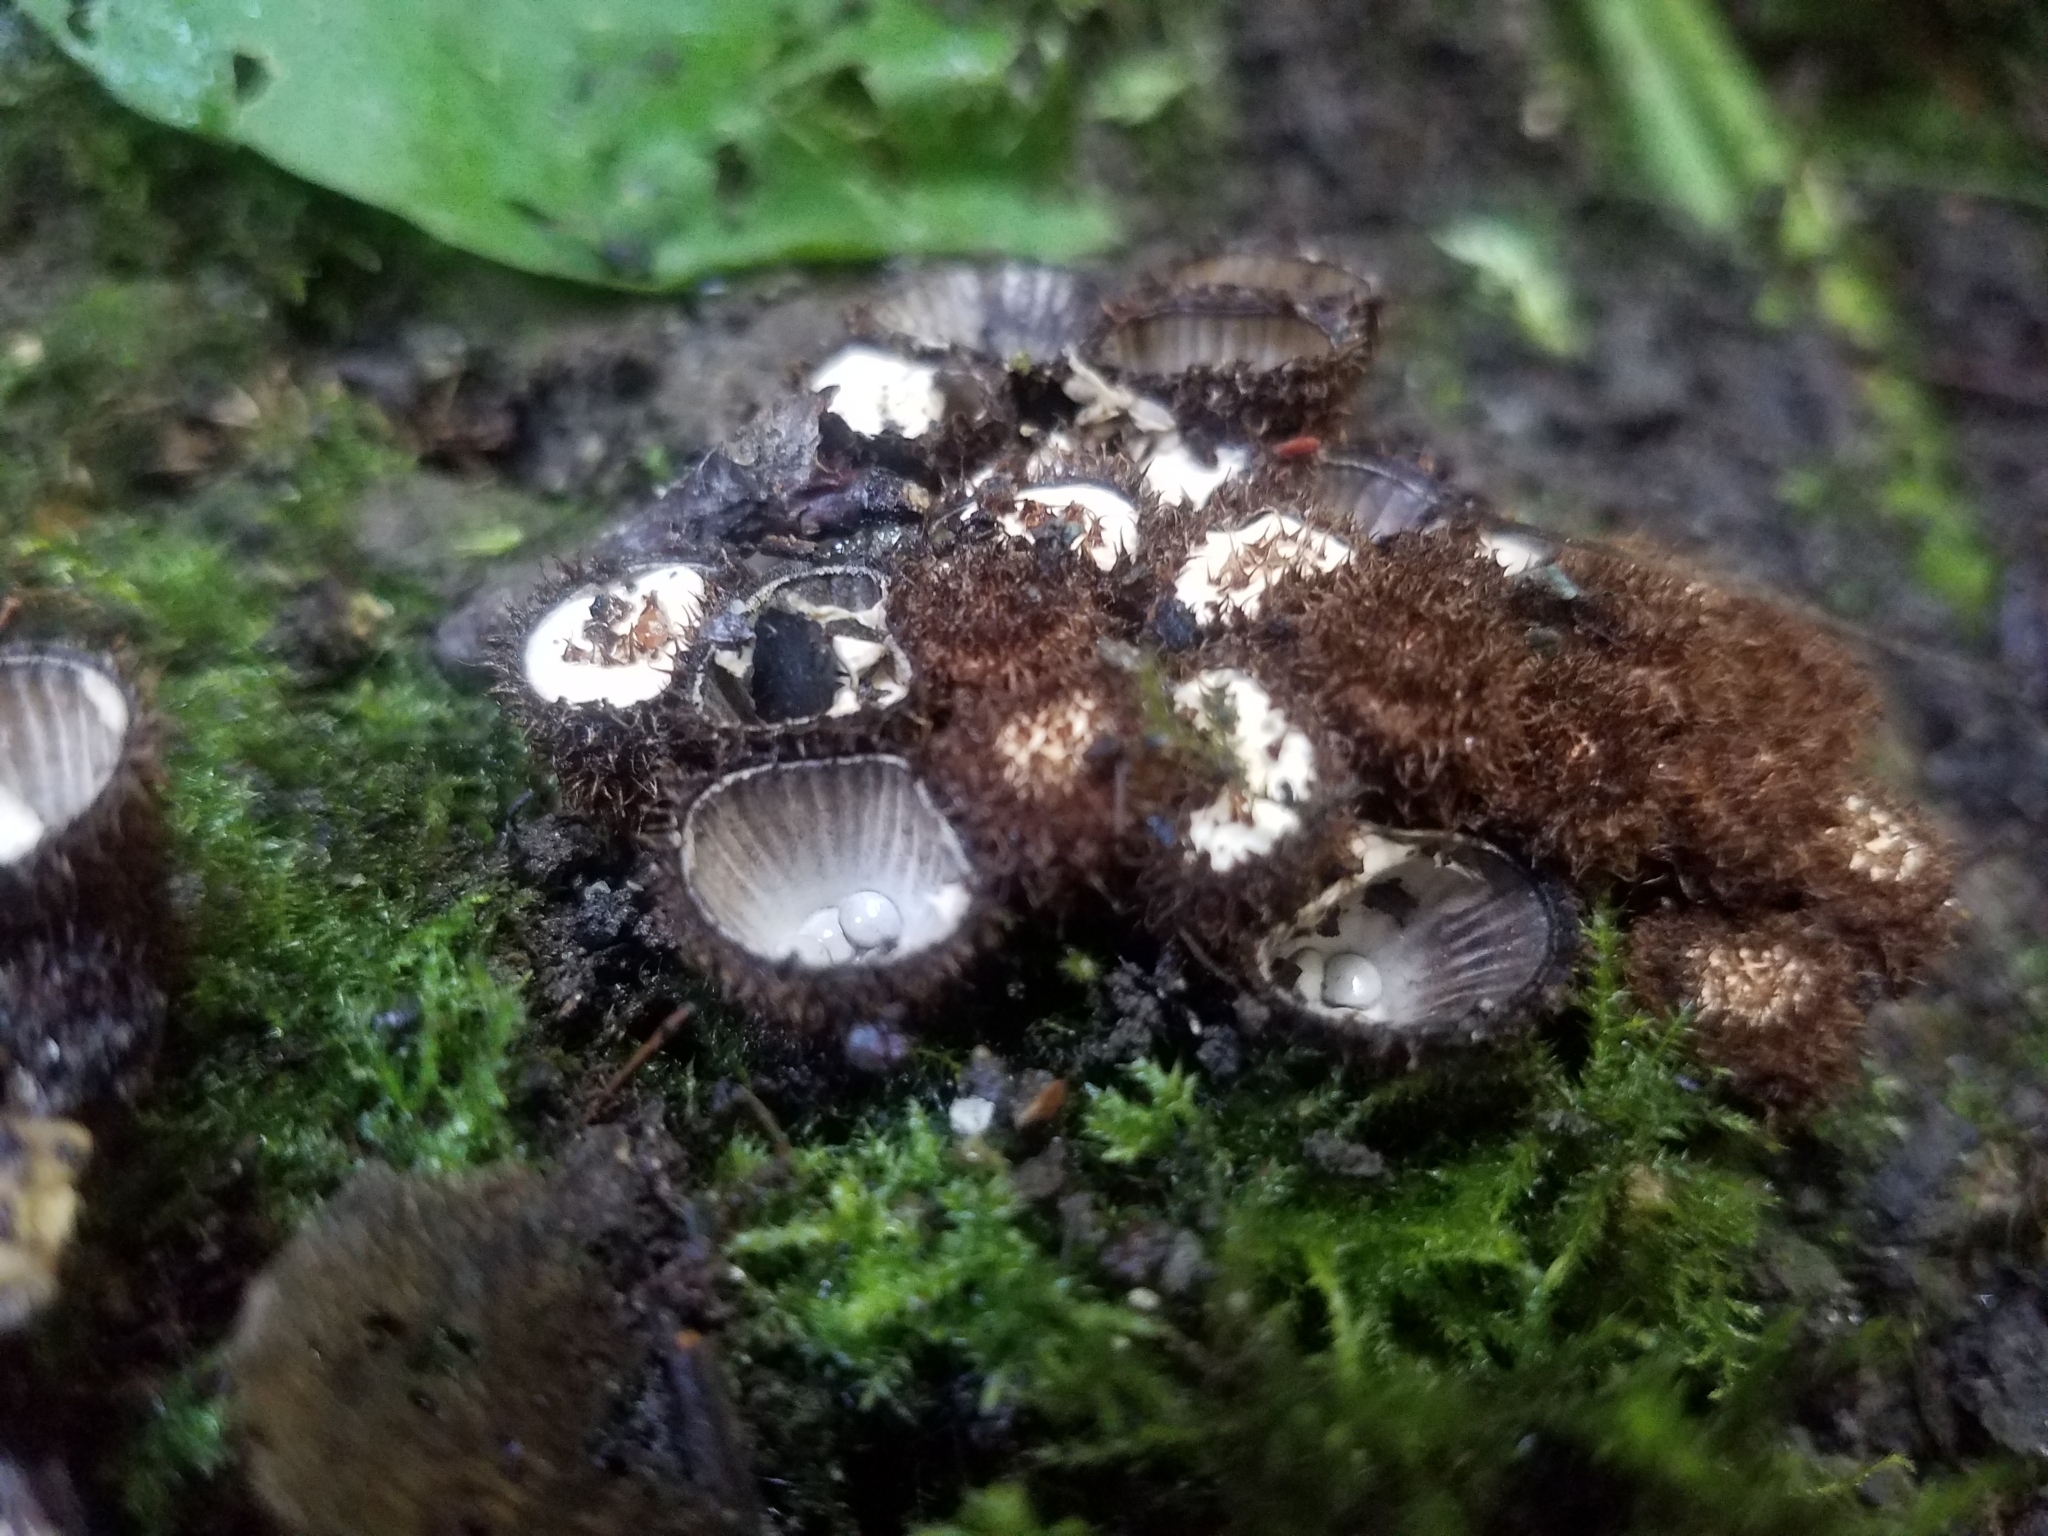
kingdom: Fungi
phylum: Basidiomycota
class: Agaricomycetes
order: Agaricales
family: Agaricaceae
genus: Cyathus
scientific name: Cyathus striatus
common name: Fluted bird's nest
